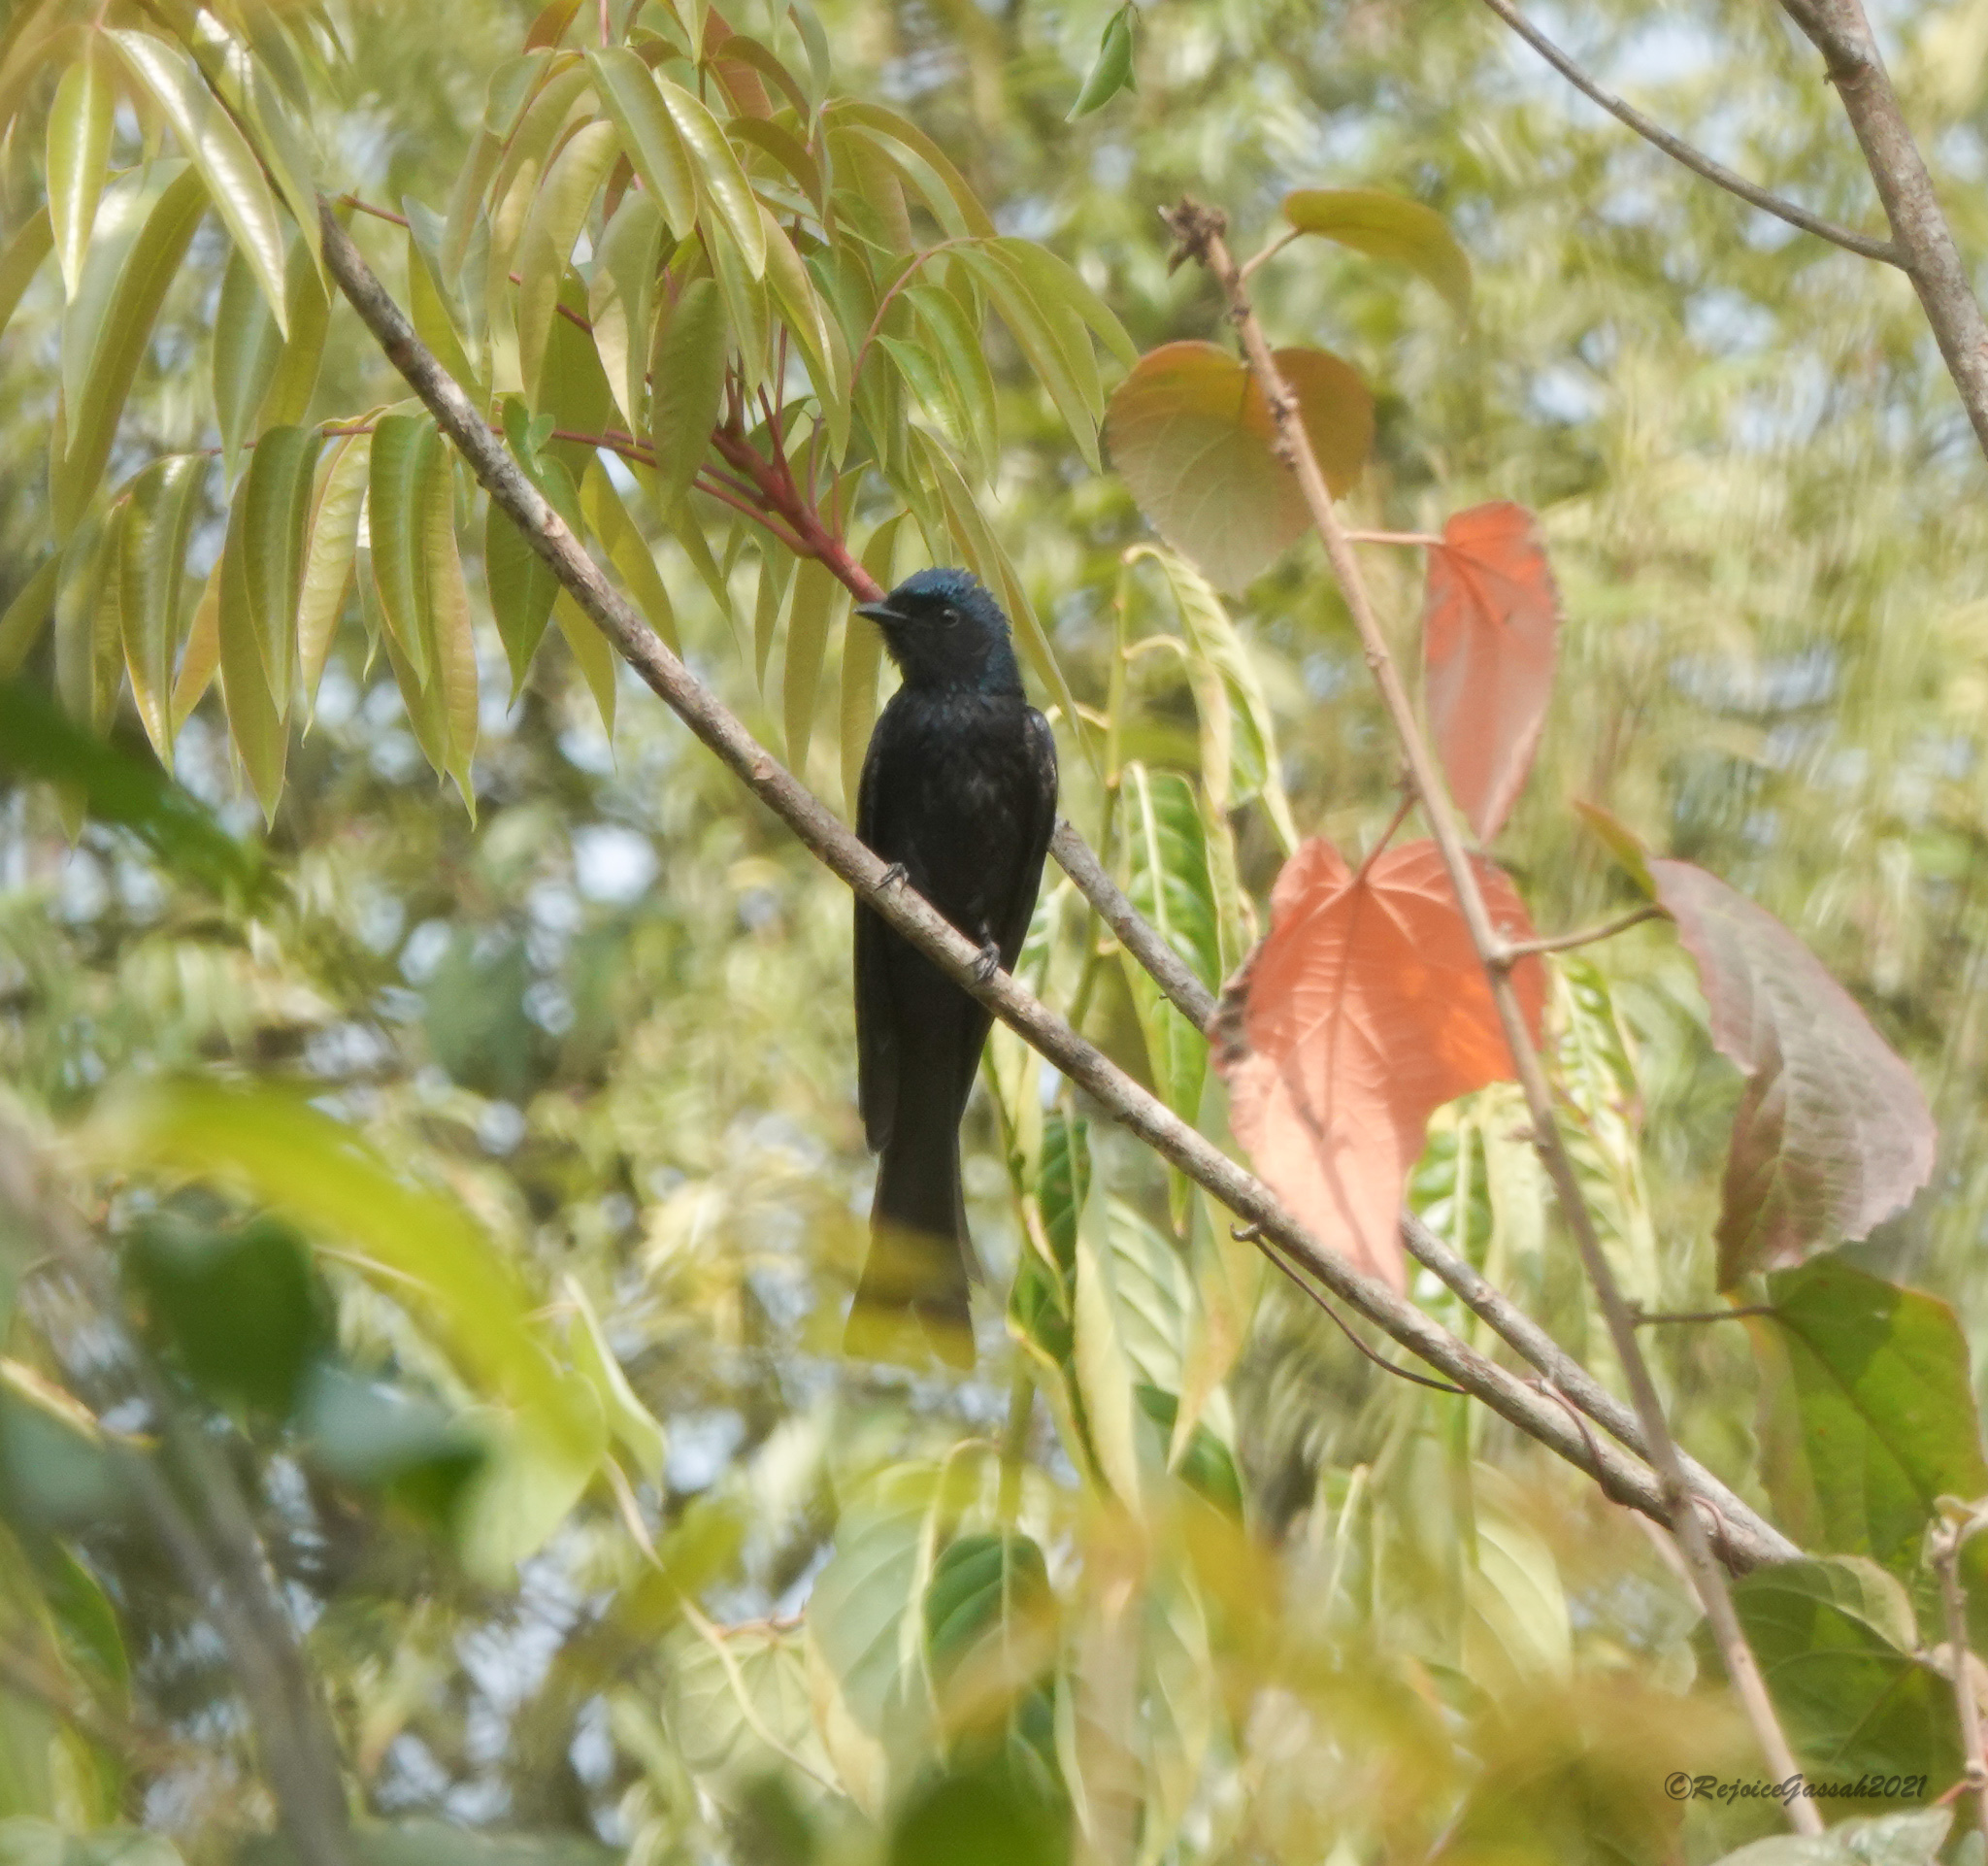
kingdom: Animalia
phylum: Chordata
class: Aves
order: Passeriformes
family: Dicruridae
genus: Dicrurus
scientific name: Dicrurus aeneus
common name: Bronzed drongo
